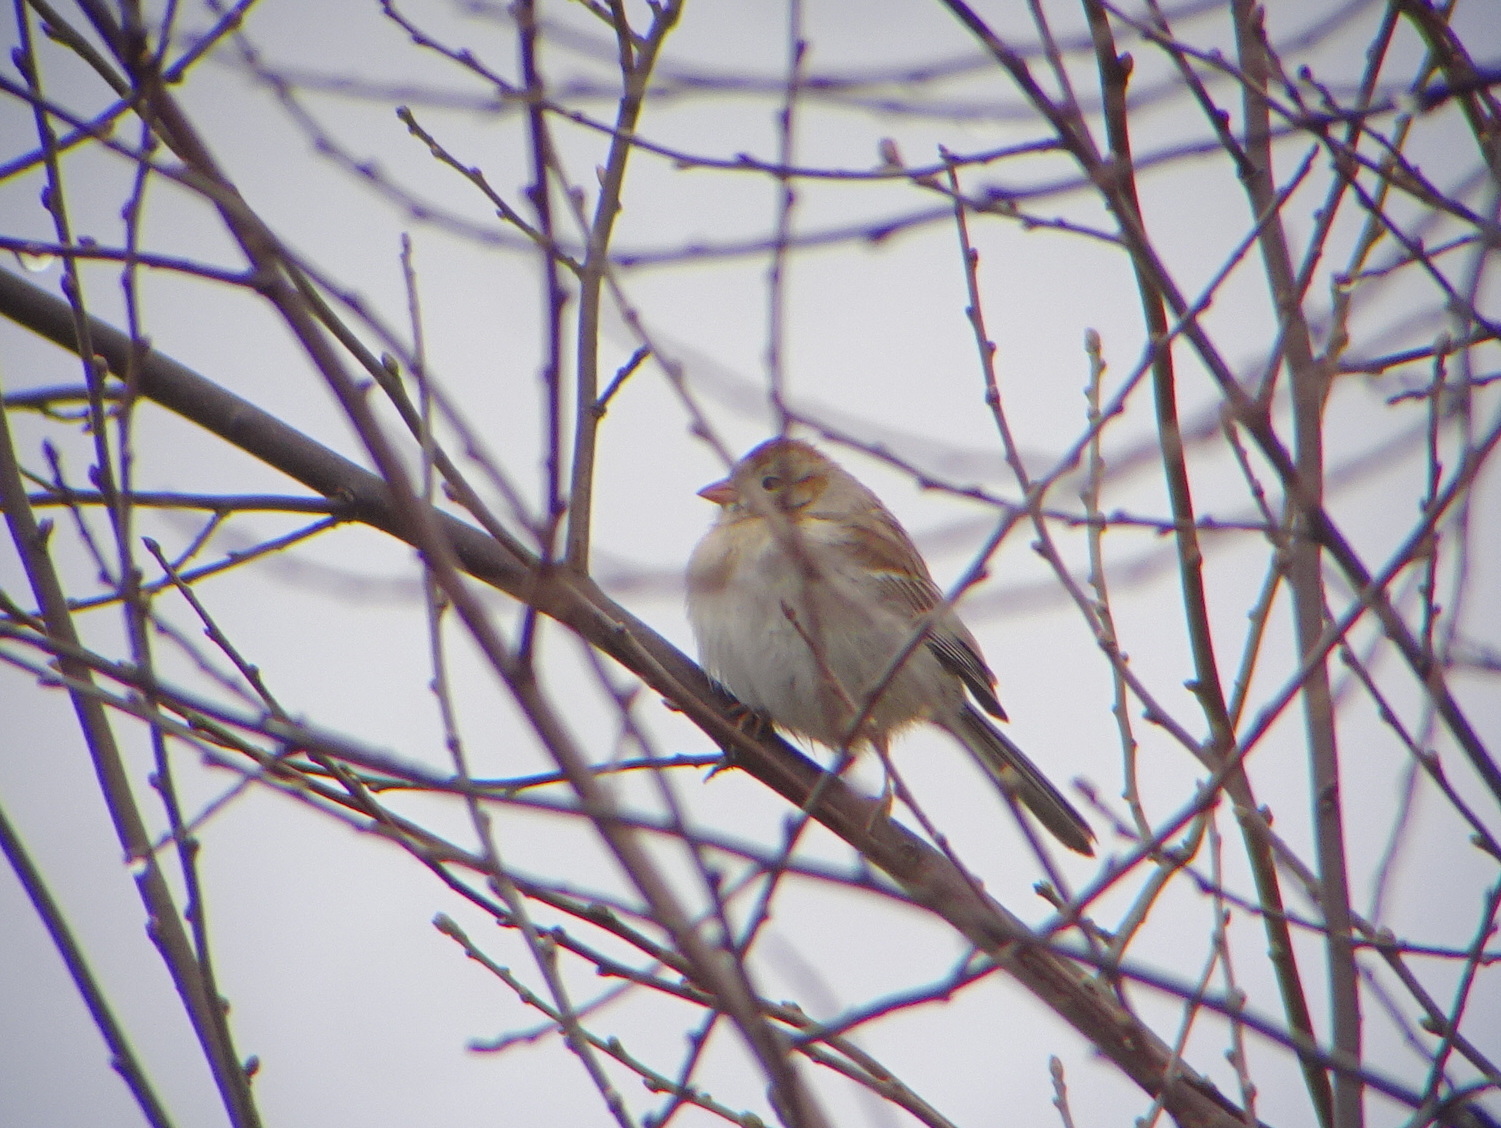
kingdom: Animalia
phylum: Chordata
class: Aves
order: Passeriformes
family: Passerellidae
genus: Spizella
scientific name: Spizella pusilla
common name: Field sparrow
